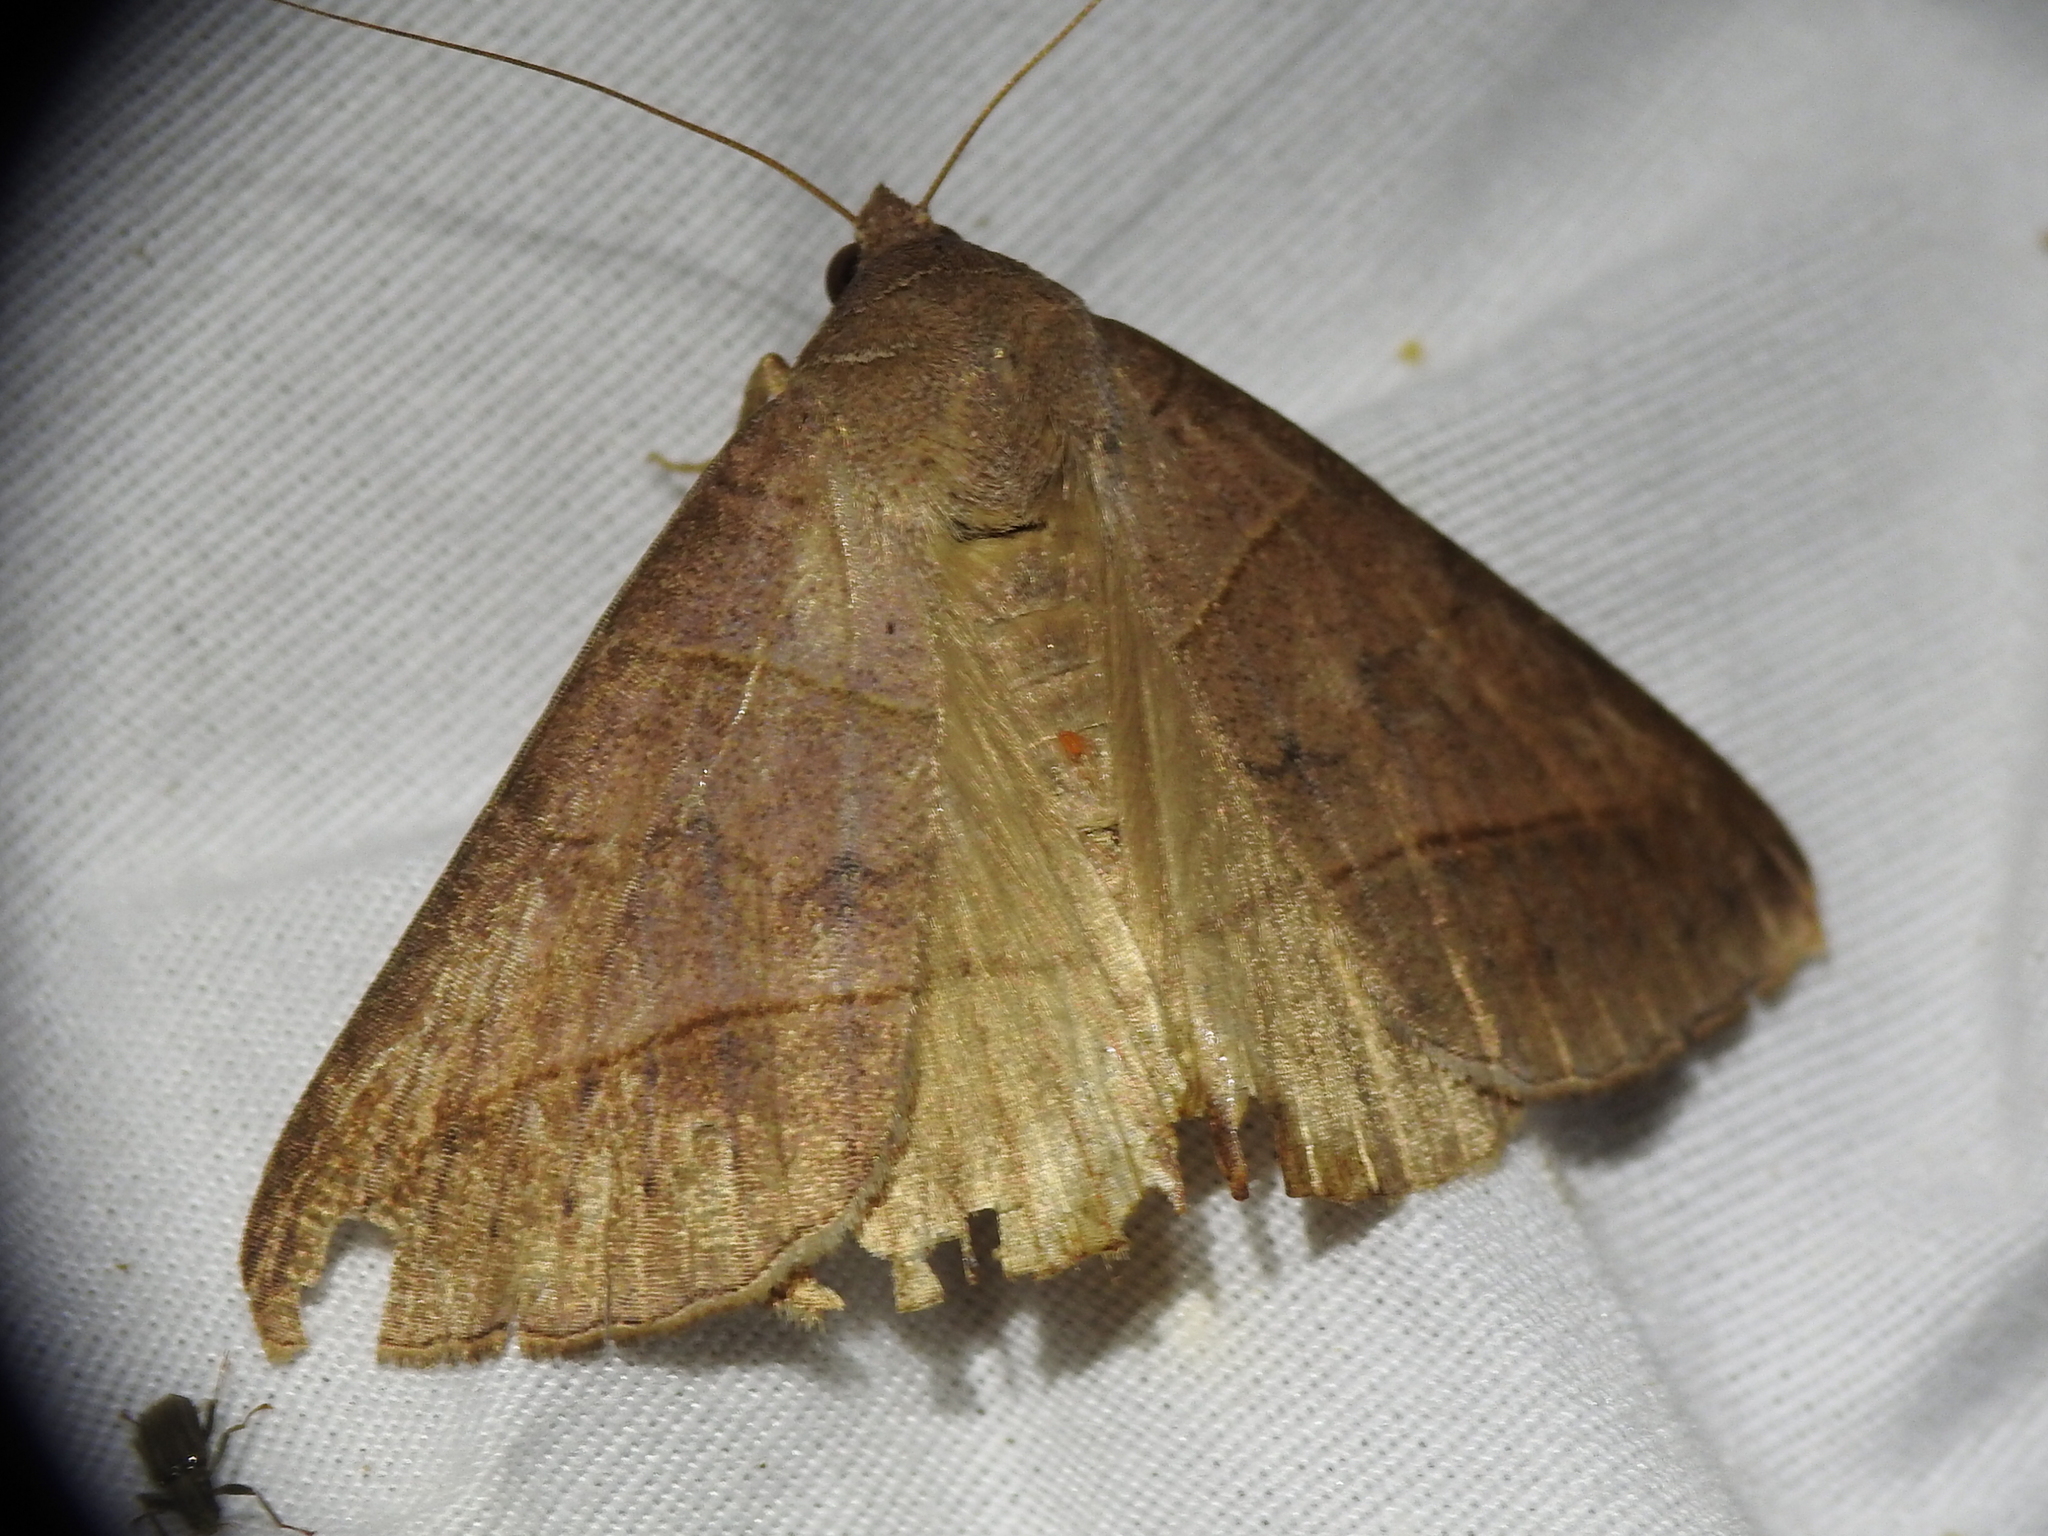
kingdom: Animalia
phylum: Arthropoda
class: Insecta
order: Lepidoptera
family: Erebidae
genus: Mocis
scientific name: Mocis texana
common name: Texas mocis moth
